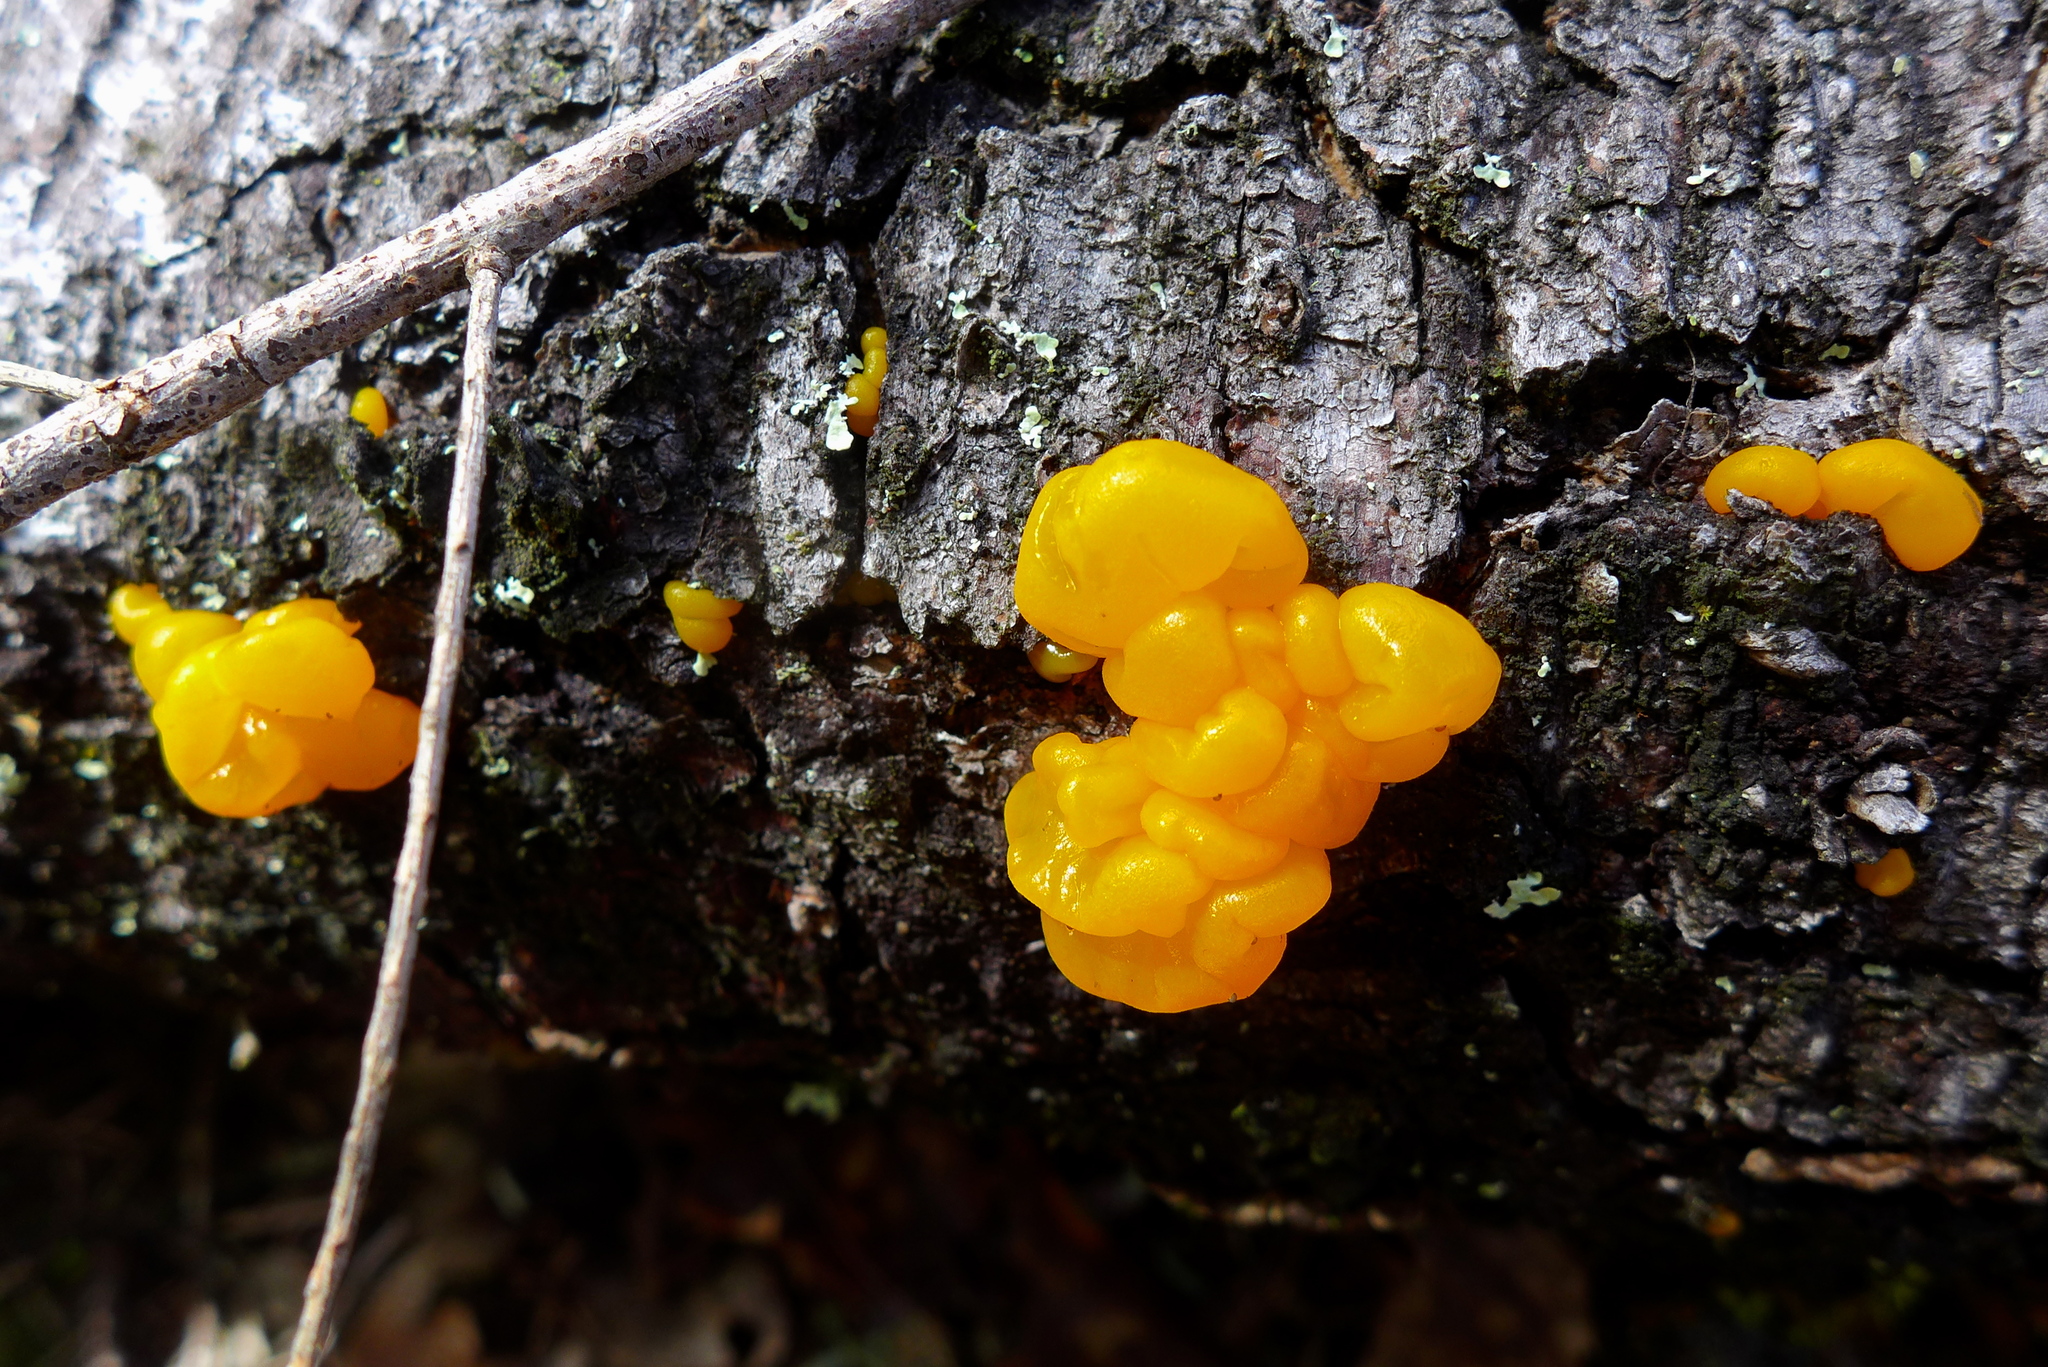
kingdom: Fungi
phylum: Basidiomycota
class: Tremellomycetes
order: Tremellales
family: Tremellaceae
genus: Tremella
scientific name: Tremella mesenterica
